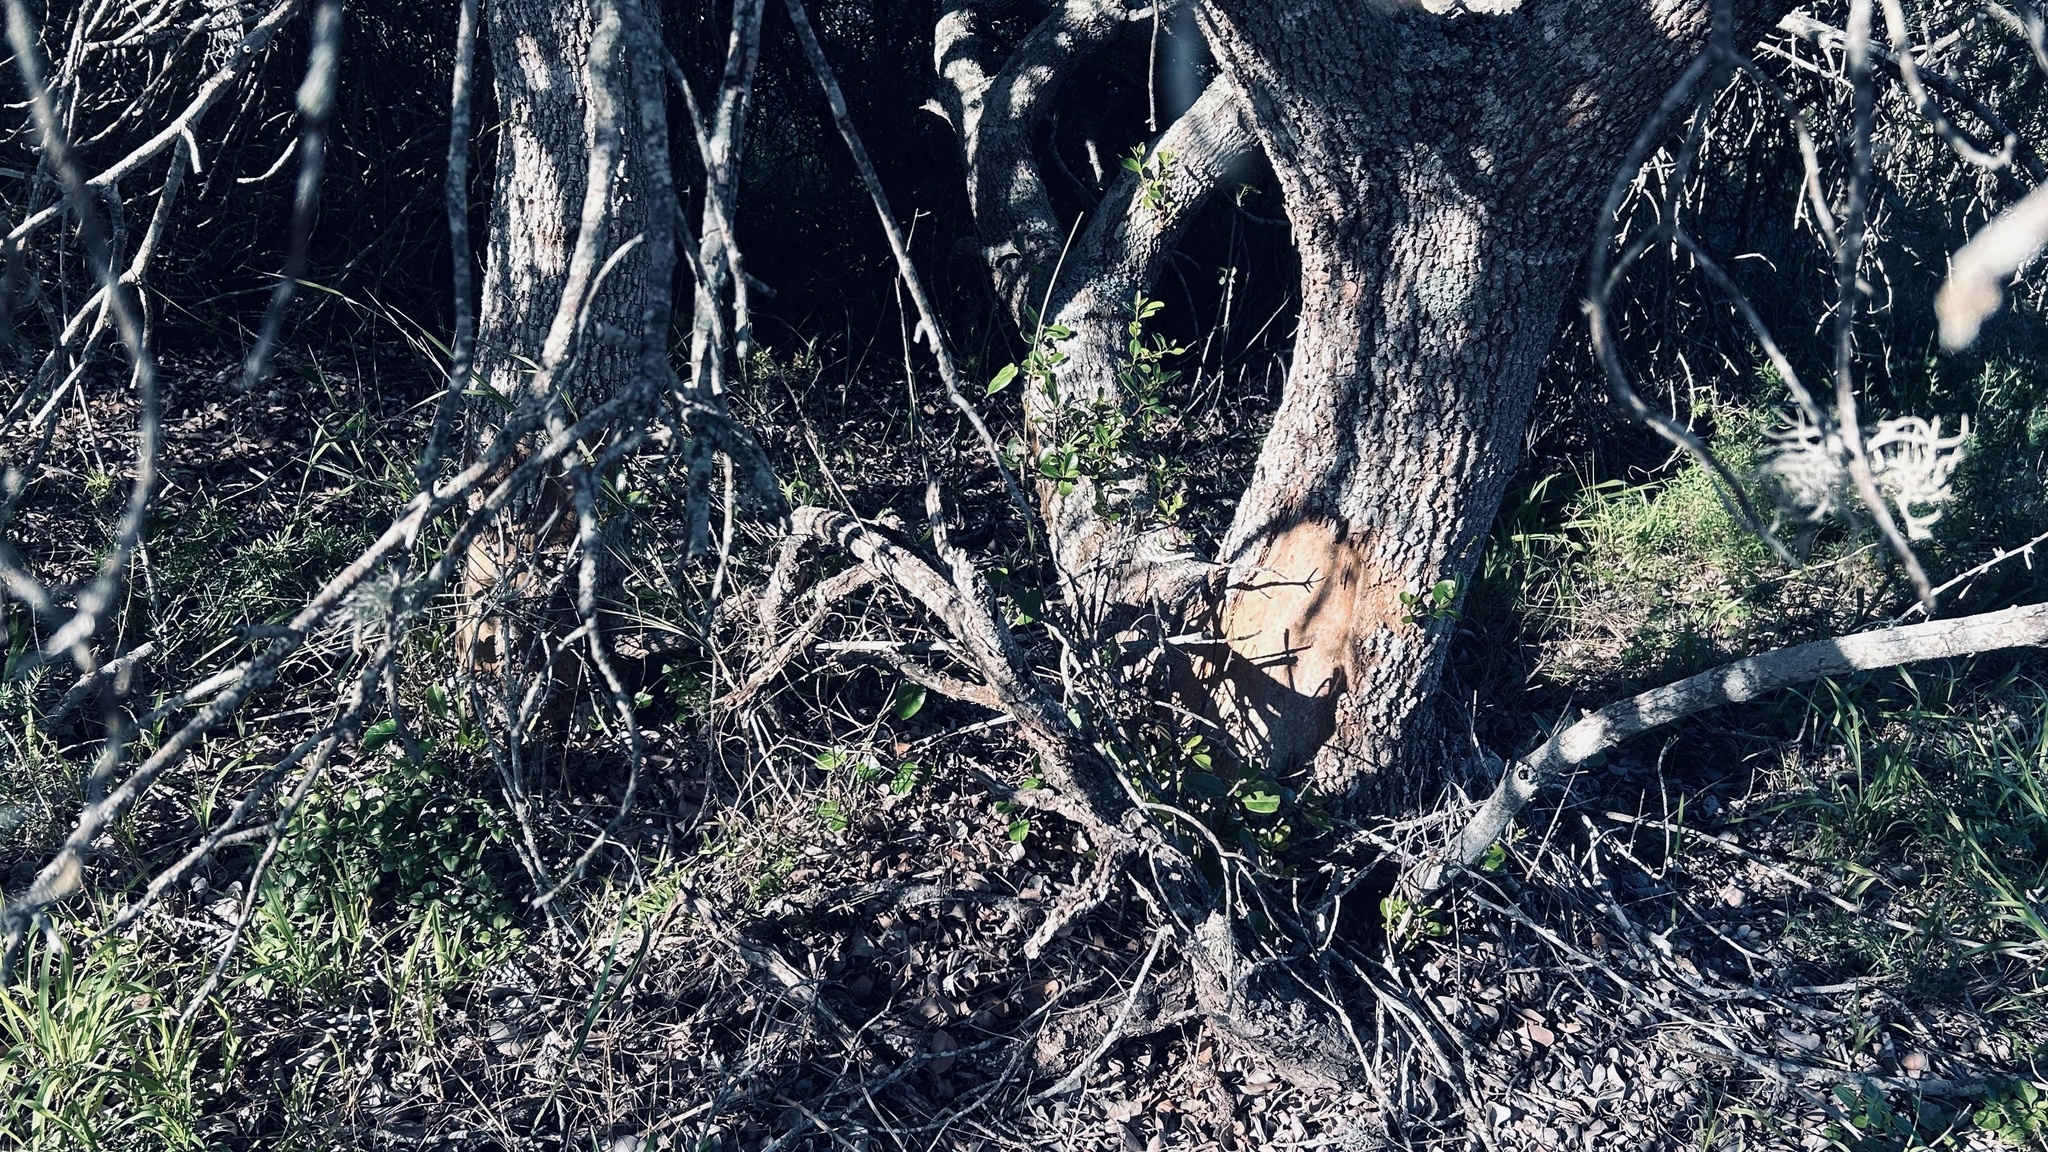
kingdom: Plantae
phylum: Tracheophyta
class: Magnoliopsida
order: Ericales
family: Sapotaceae
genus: Sideroxylon
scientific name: Sideroxylon inerme
